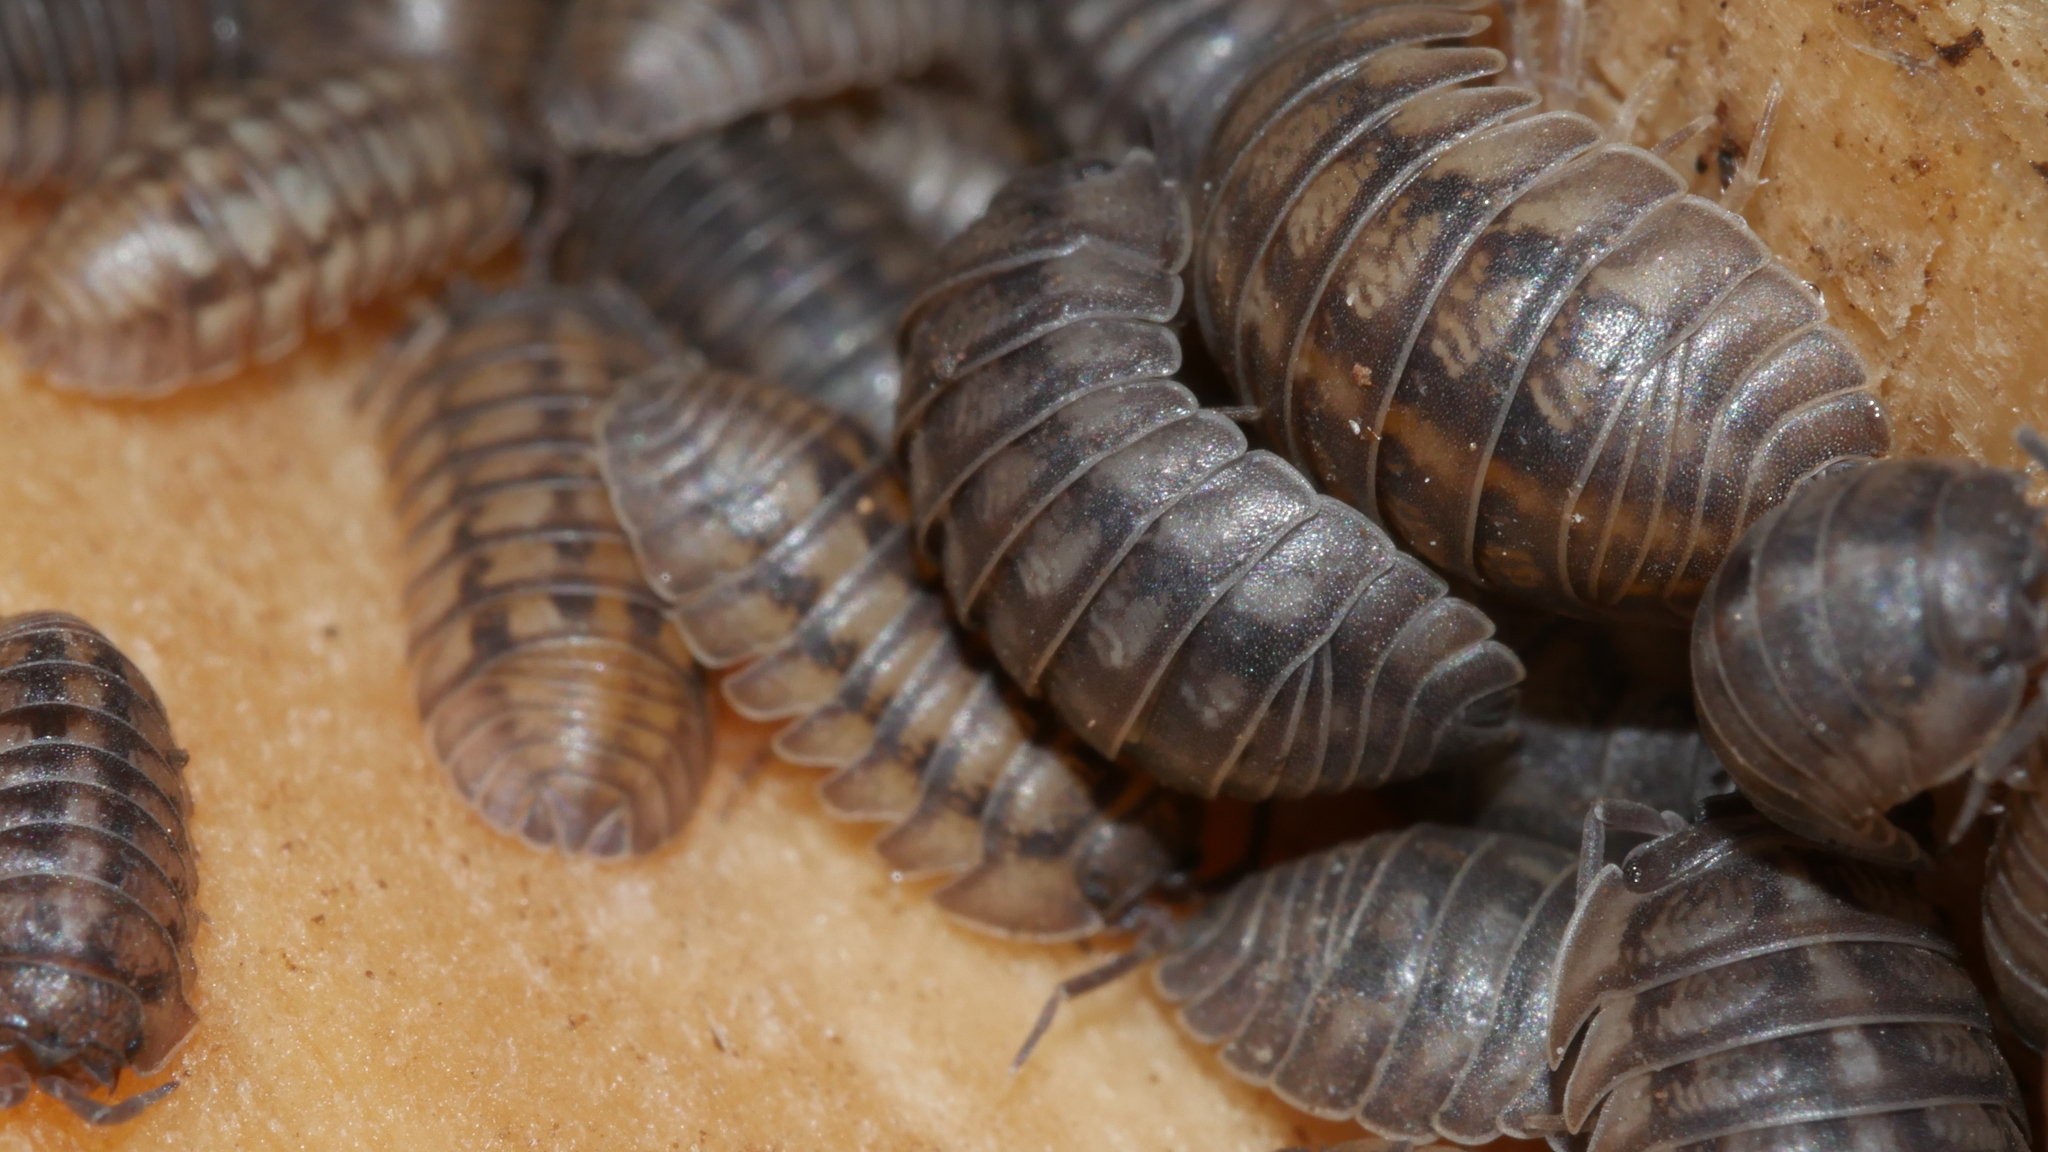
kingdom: Animalia
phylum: Arthropoda
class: Malacostraca
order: Isopoda
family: Armadillidiidae
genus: Armadillidium
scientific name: Armadillidium nasatum
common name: Isopod
